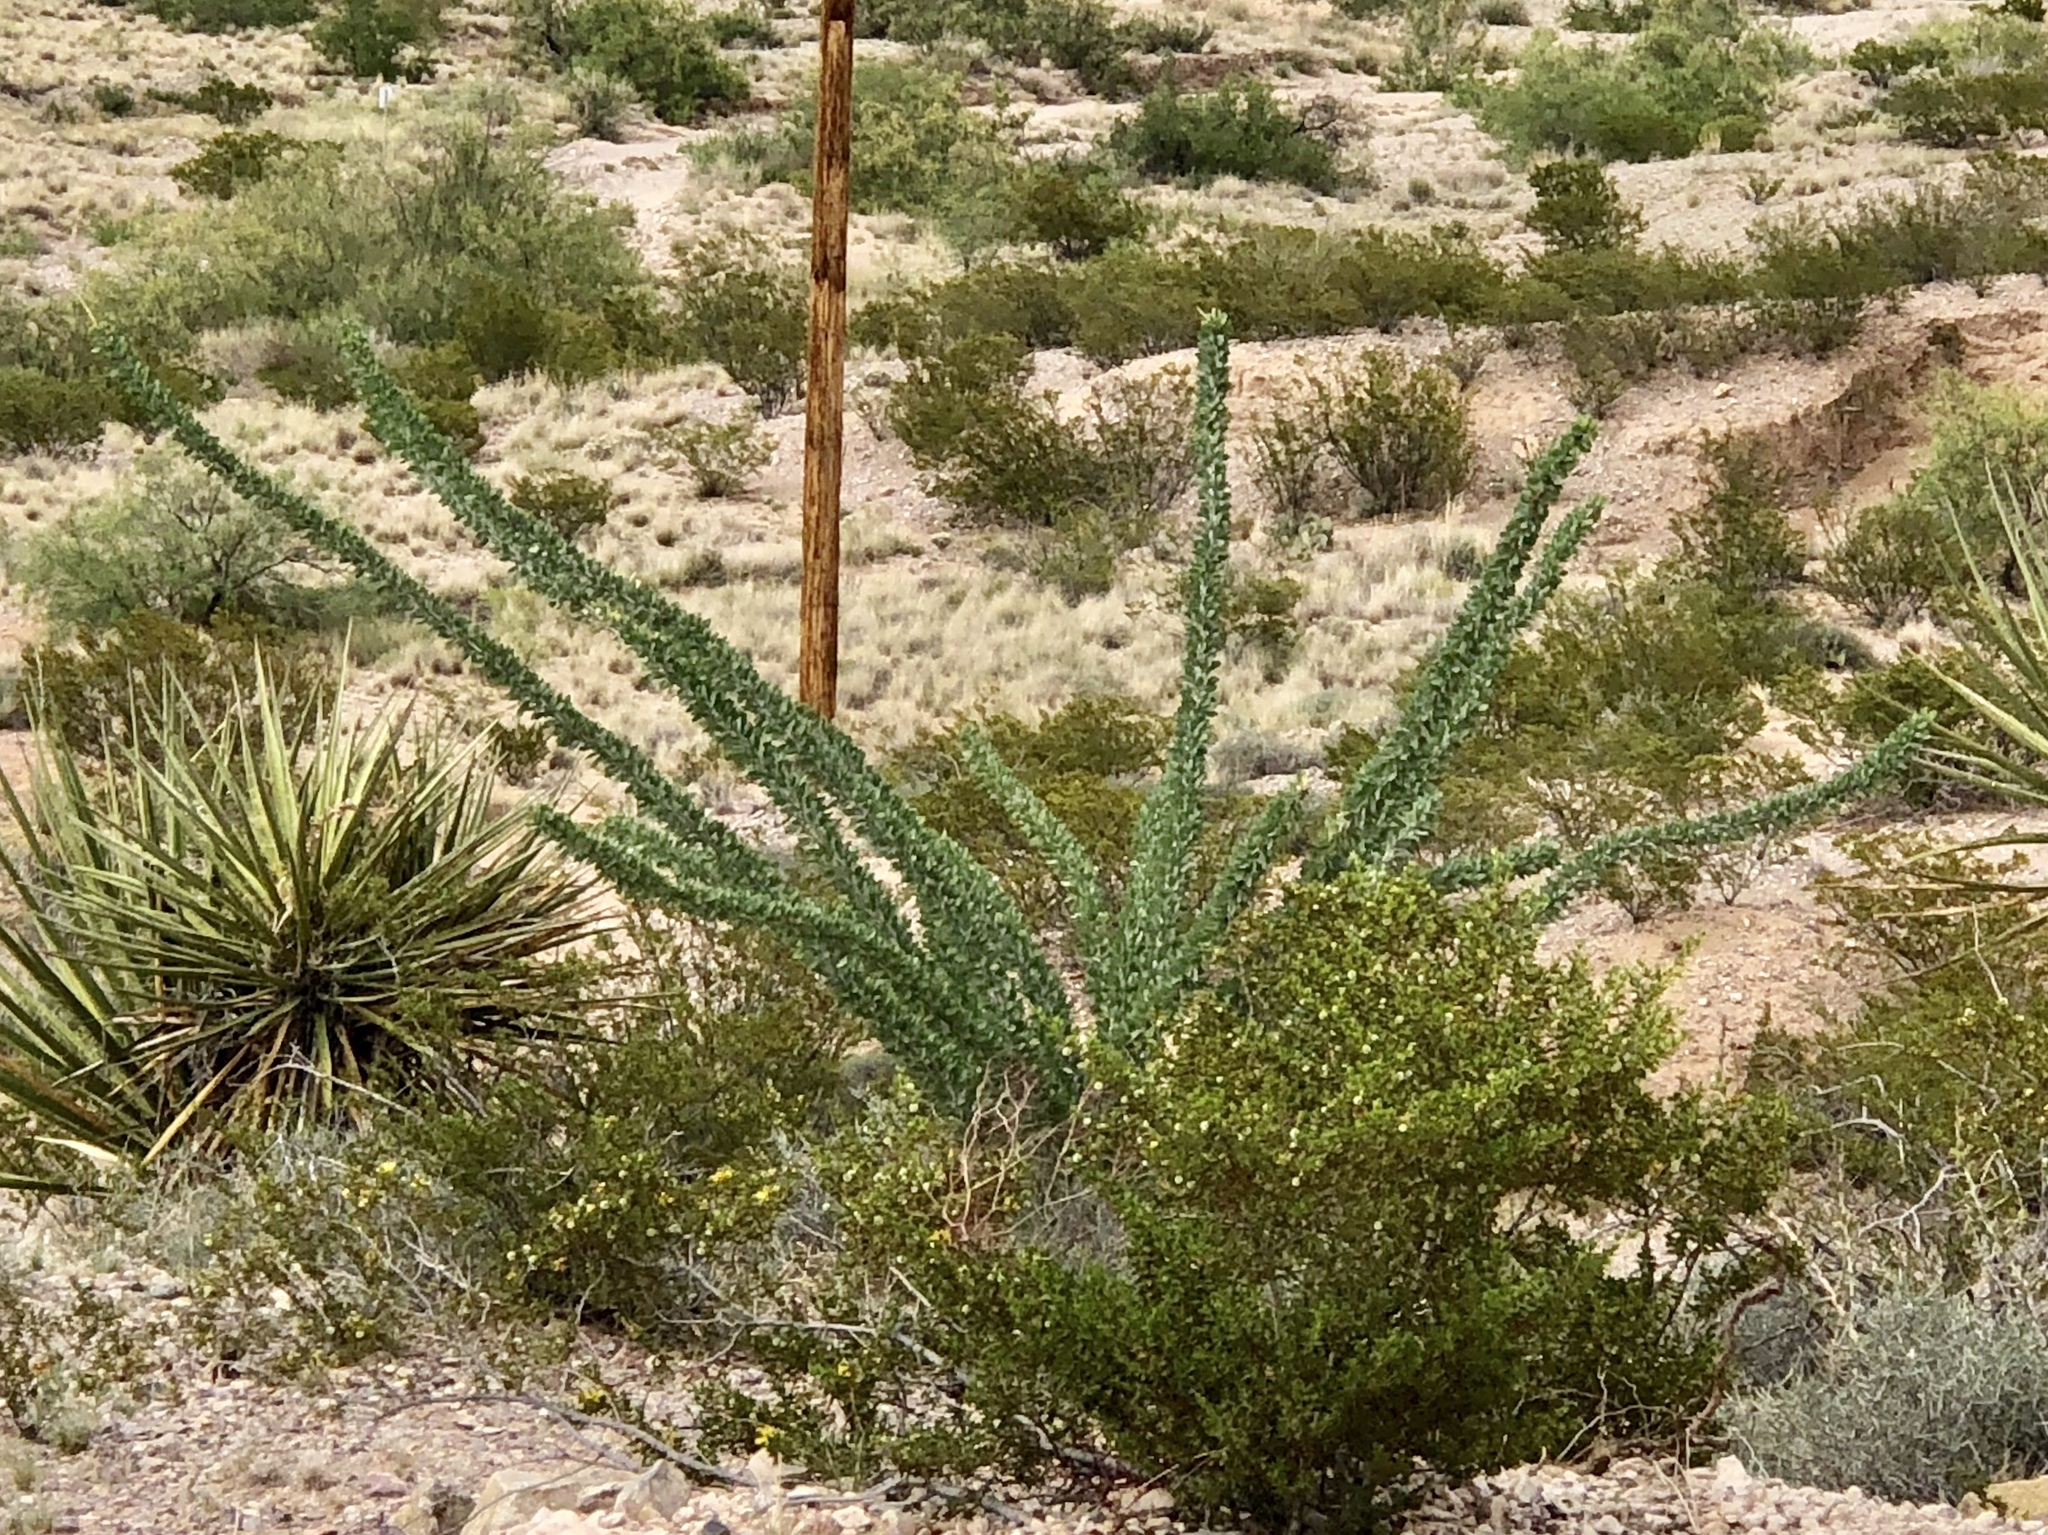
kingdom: Plantae
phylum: Tracheophyta
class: Magnoliopsida
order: Ericales
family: Fouquieriaceae
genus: Fouquieria
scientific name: Fouquieria splendens
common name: Vine-cactus
